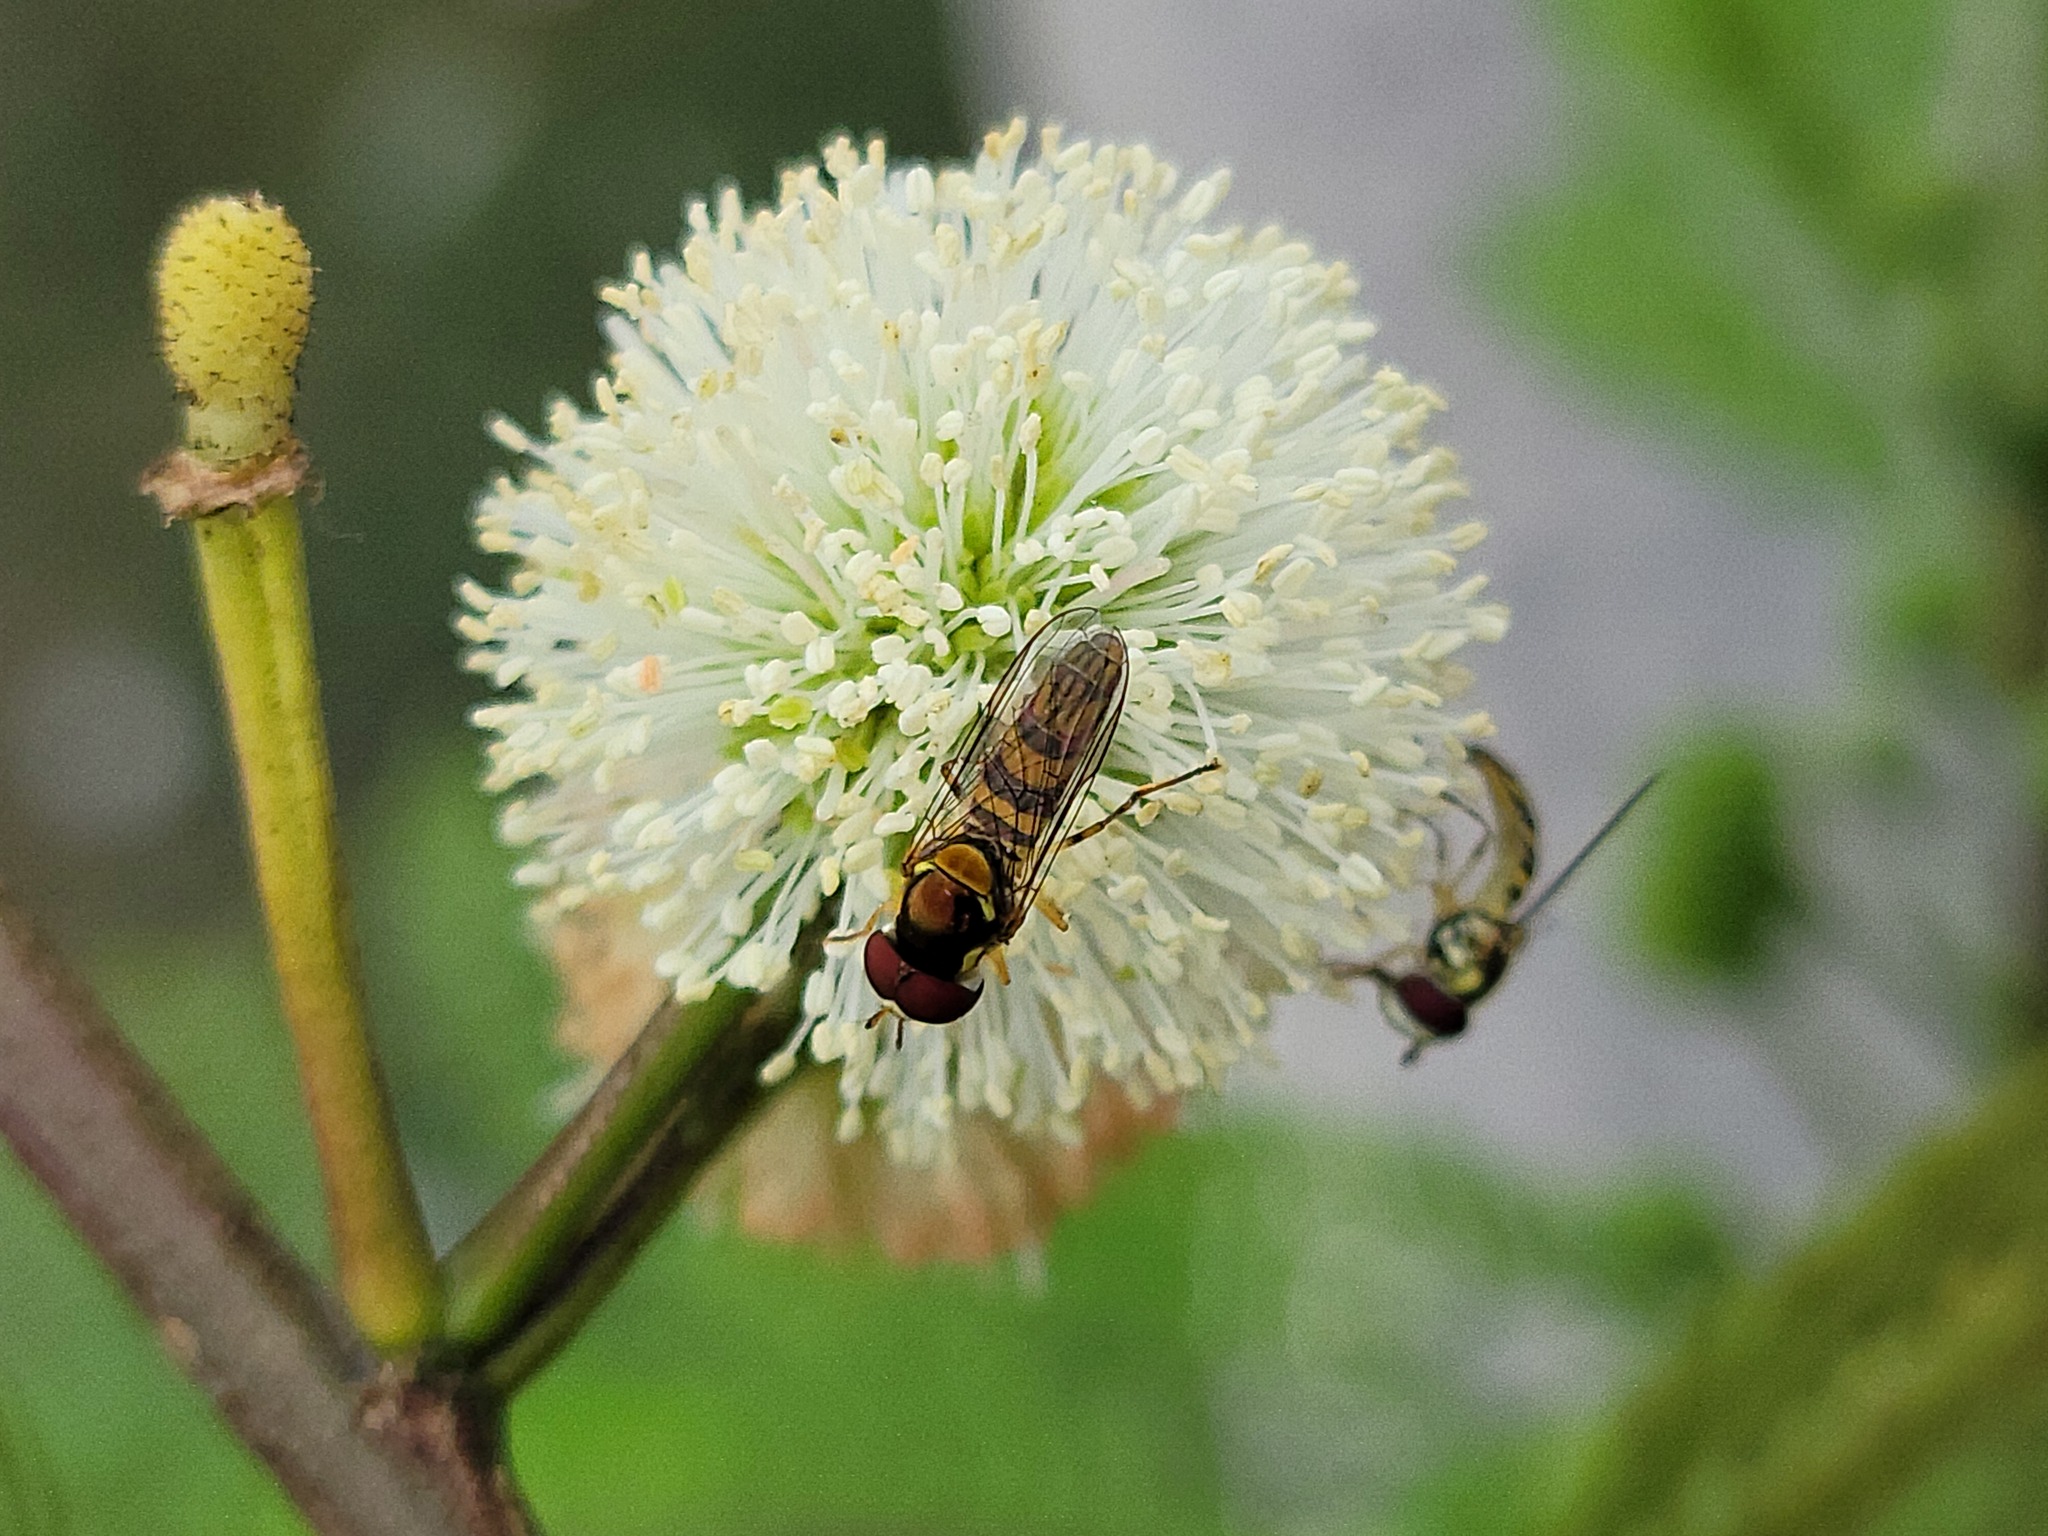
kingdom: Animalia
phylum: Arthropoda
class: Insecta
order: Diptera
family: Syrphidae
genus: Allograpta
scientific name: Allograpta obliqua
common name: Common oblique syrphid
